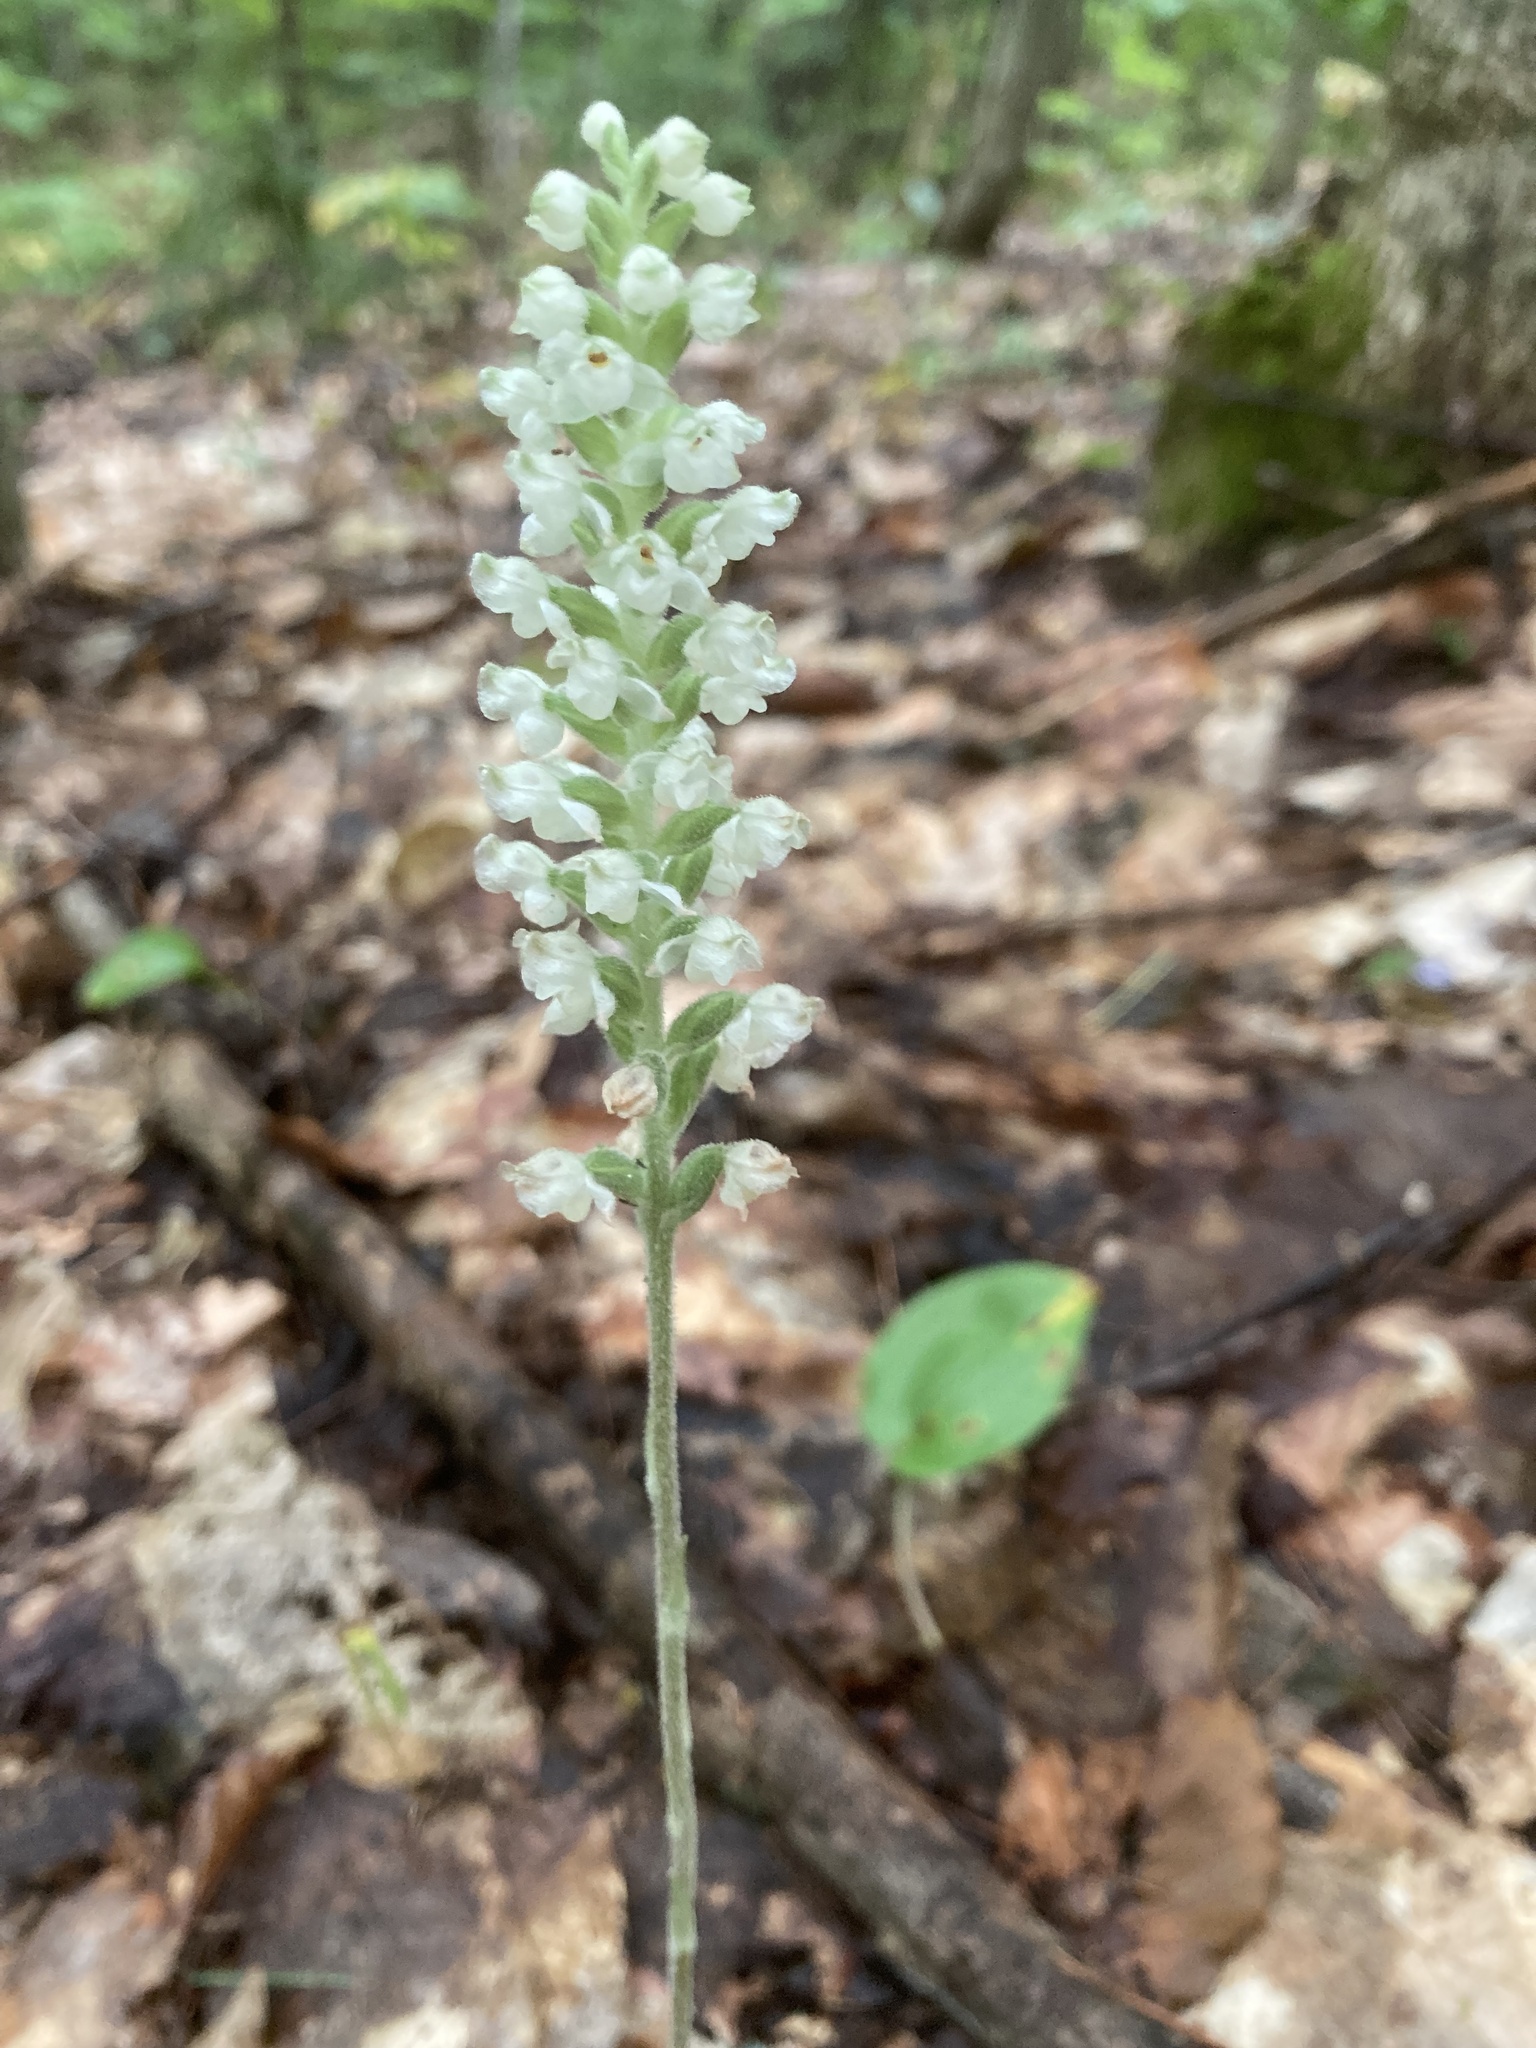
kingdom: Plantae
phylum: Tracheophyta
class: Liliopsida
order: Asparagales
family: Orchidaceae
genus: Goodyera
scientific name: Goodyera pubescens
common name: Downy rattlesnake-plantain
